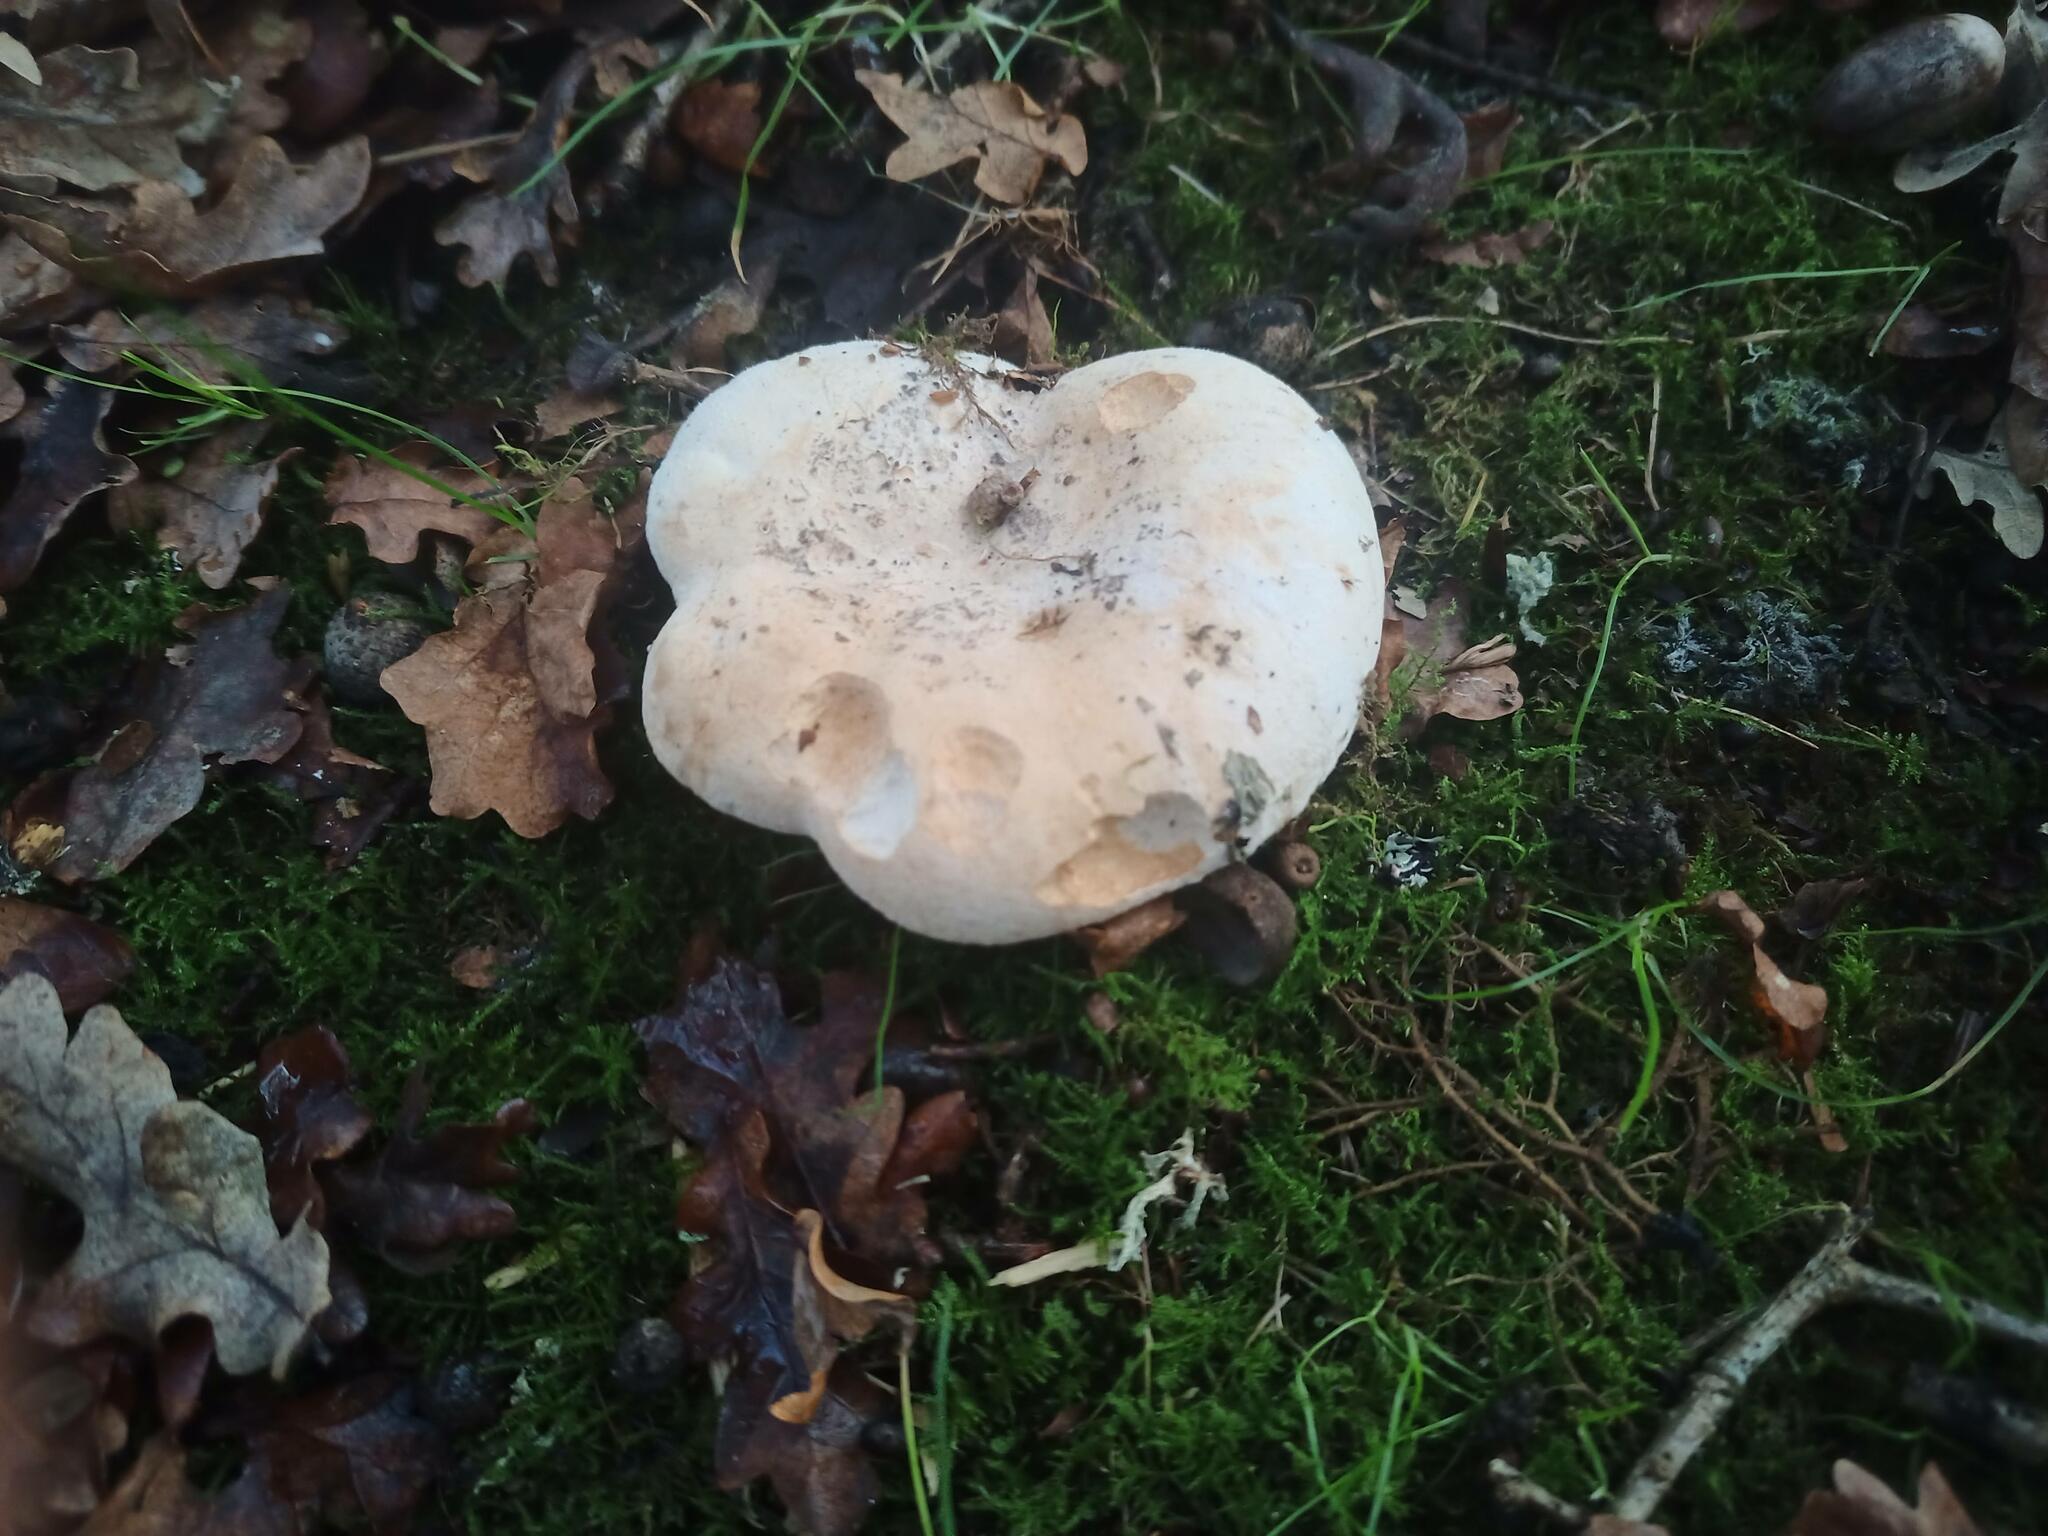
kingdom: Fungi
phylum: Basidiomycota
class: Agaricomycetes
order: Russulales
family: Russulaceae
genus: Lactifluus
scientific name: Lactifluus vellereus
